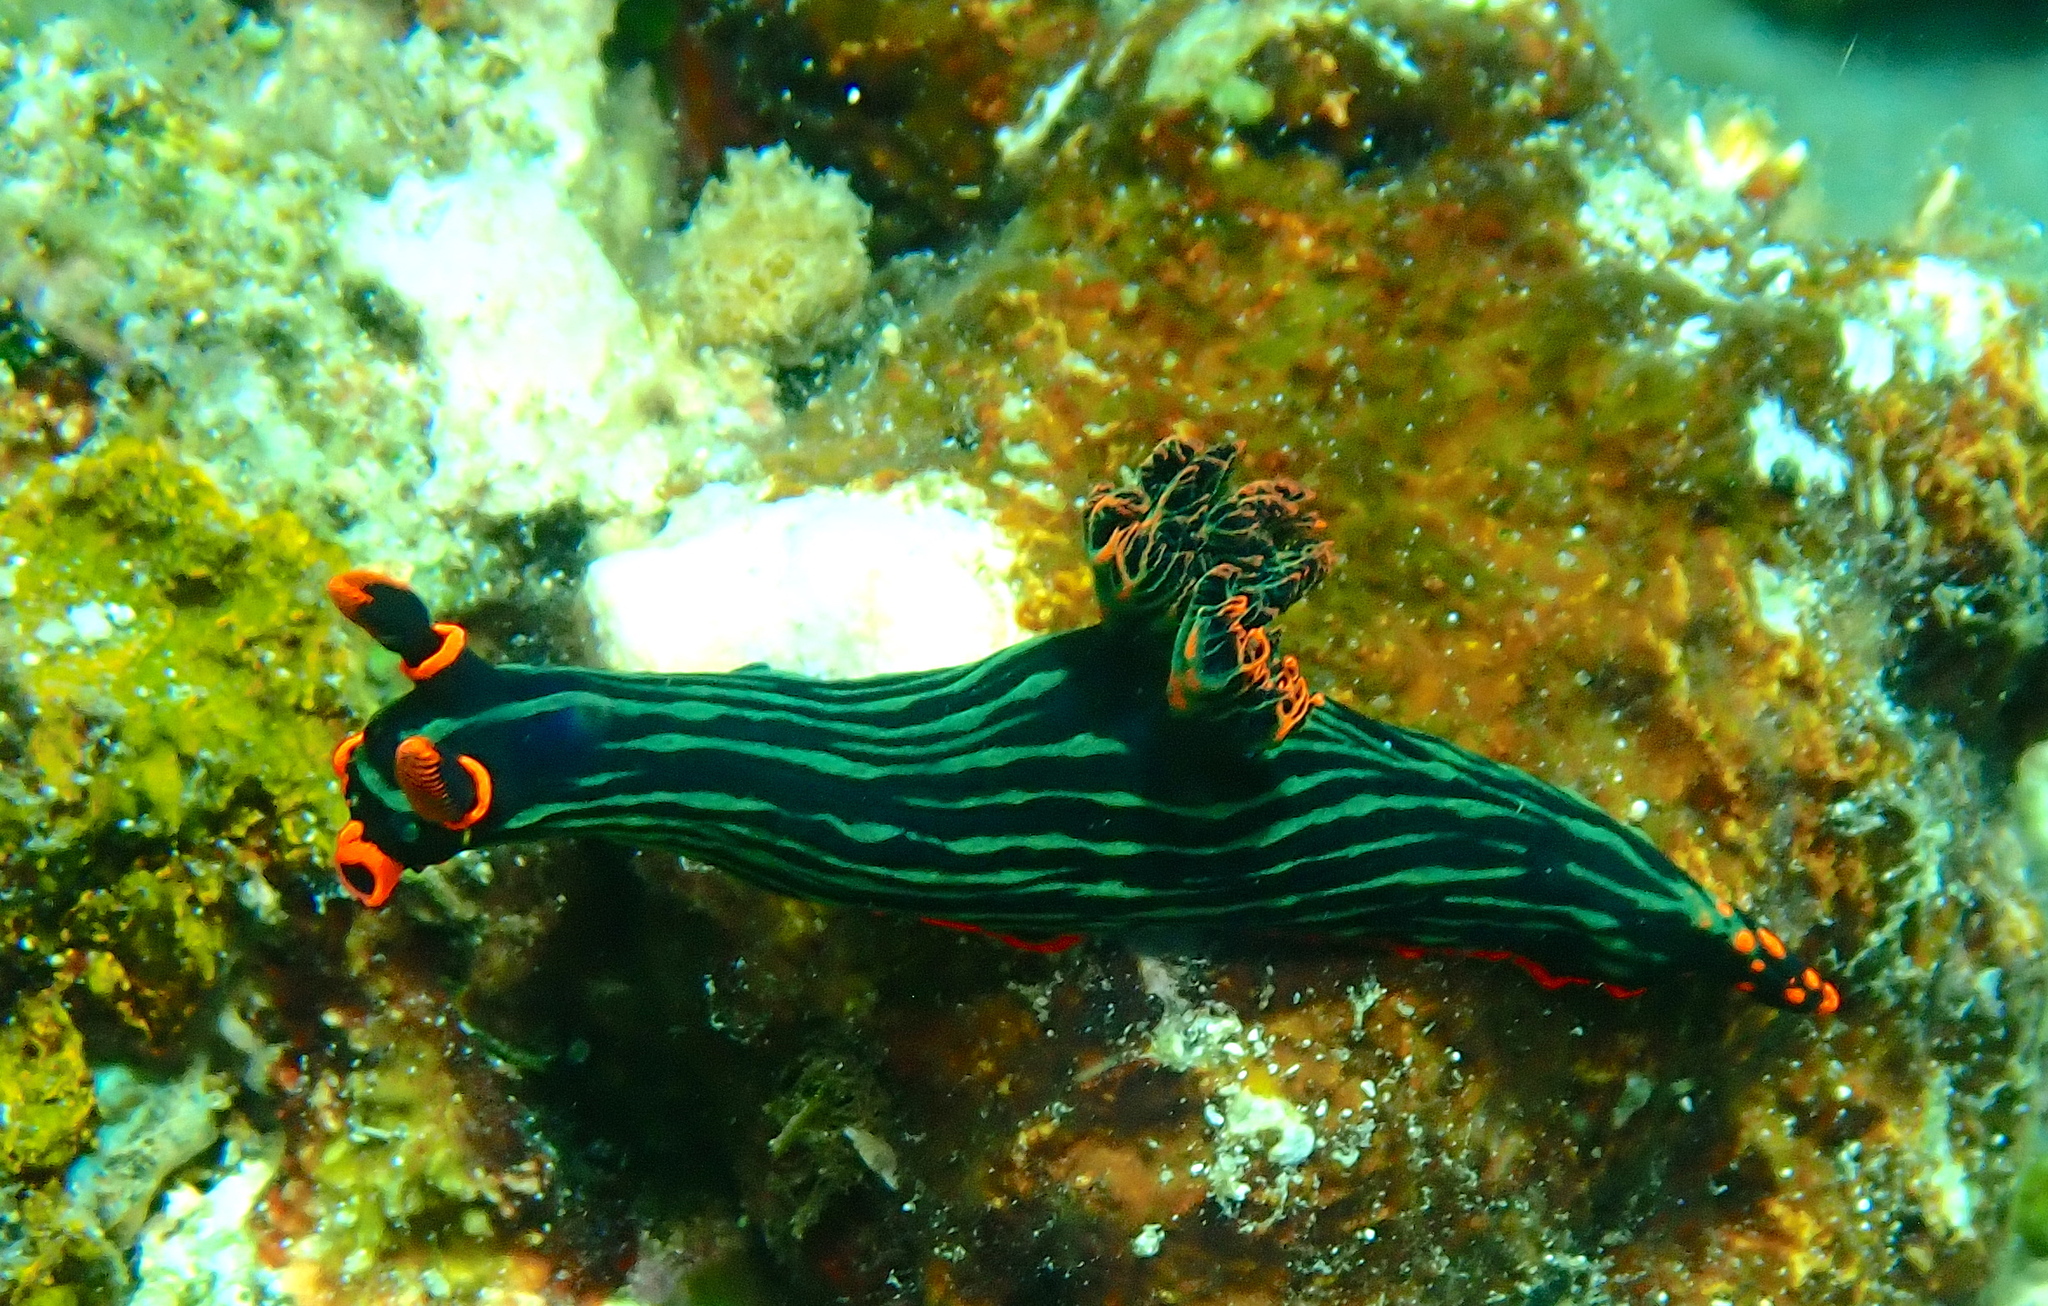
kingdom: Animalia
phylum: Mollusca
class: Gastropoda
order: Nudibranchia
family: Polyceridae
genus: Nembrotha
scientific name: Nembrotha kubaryana
